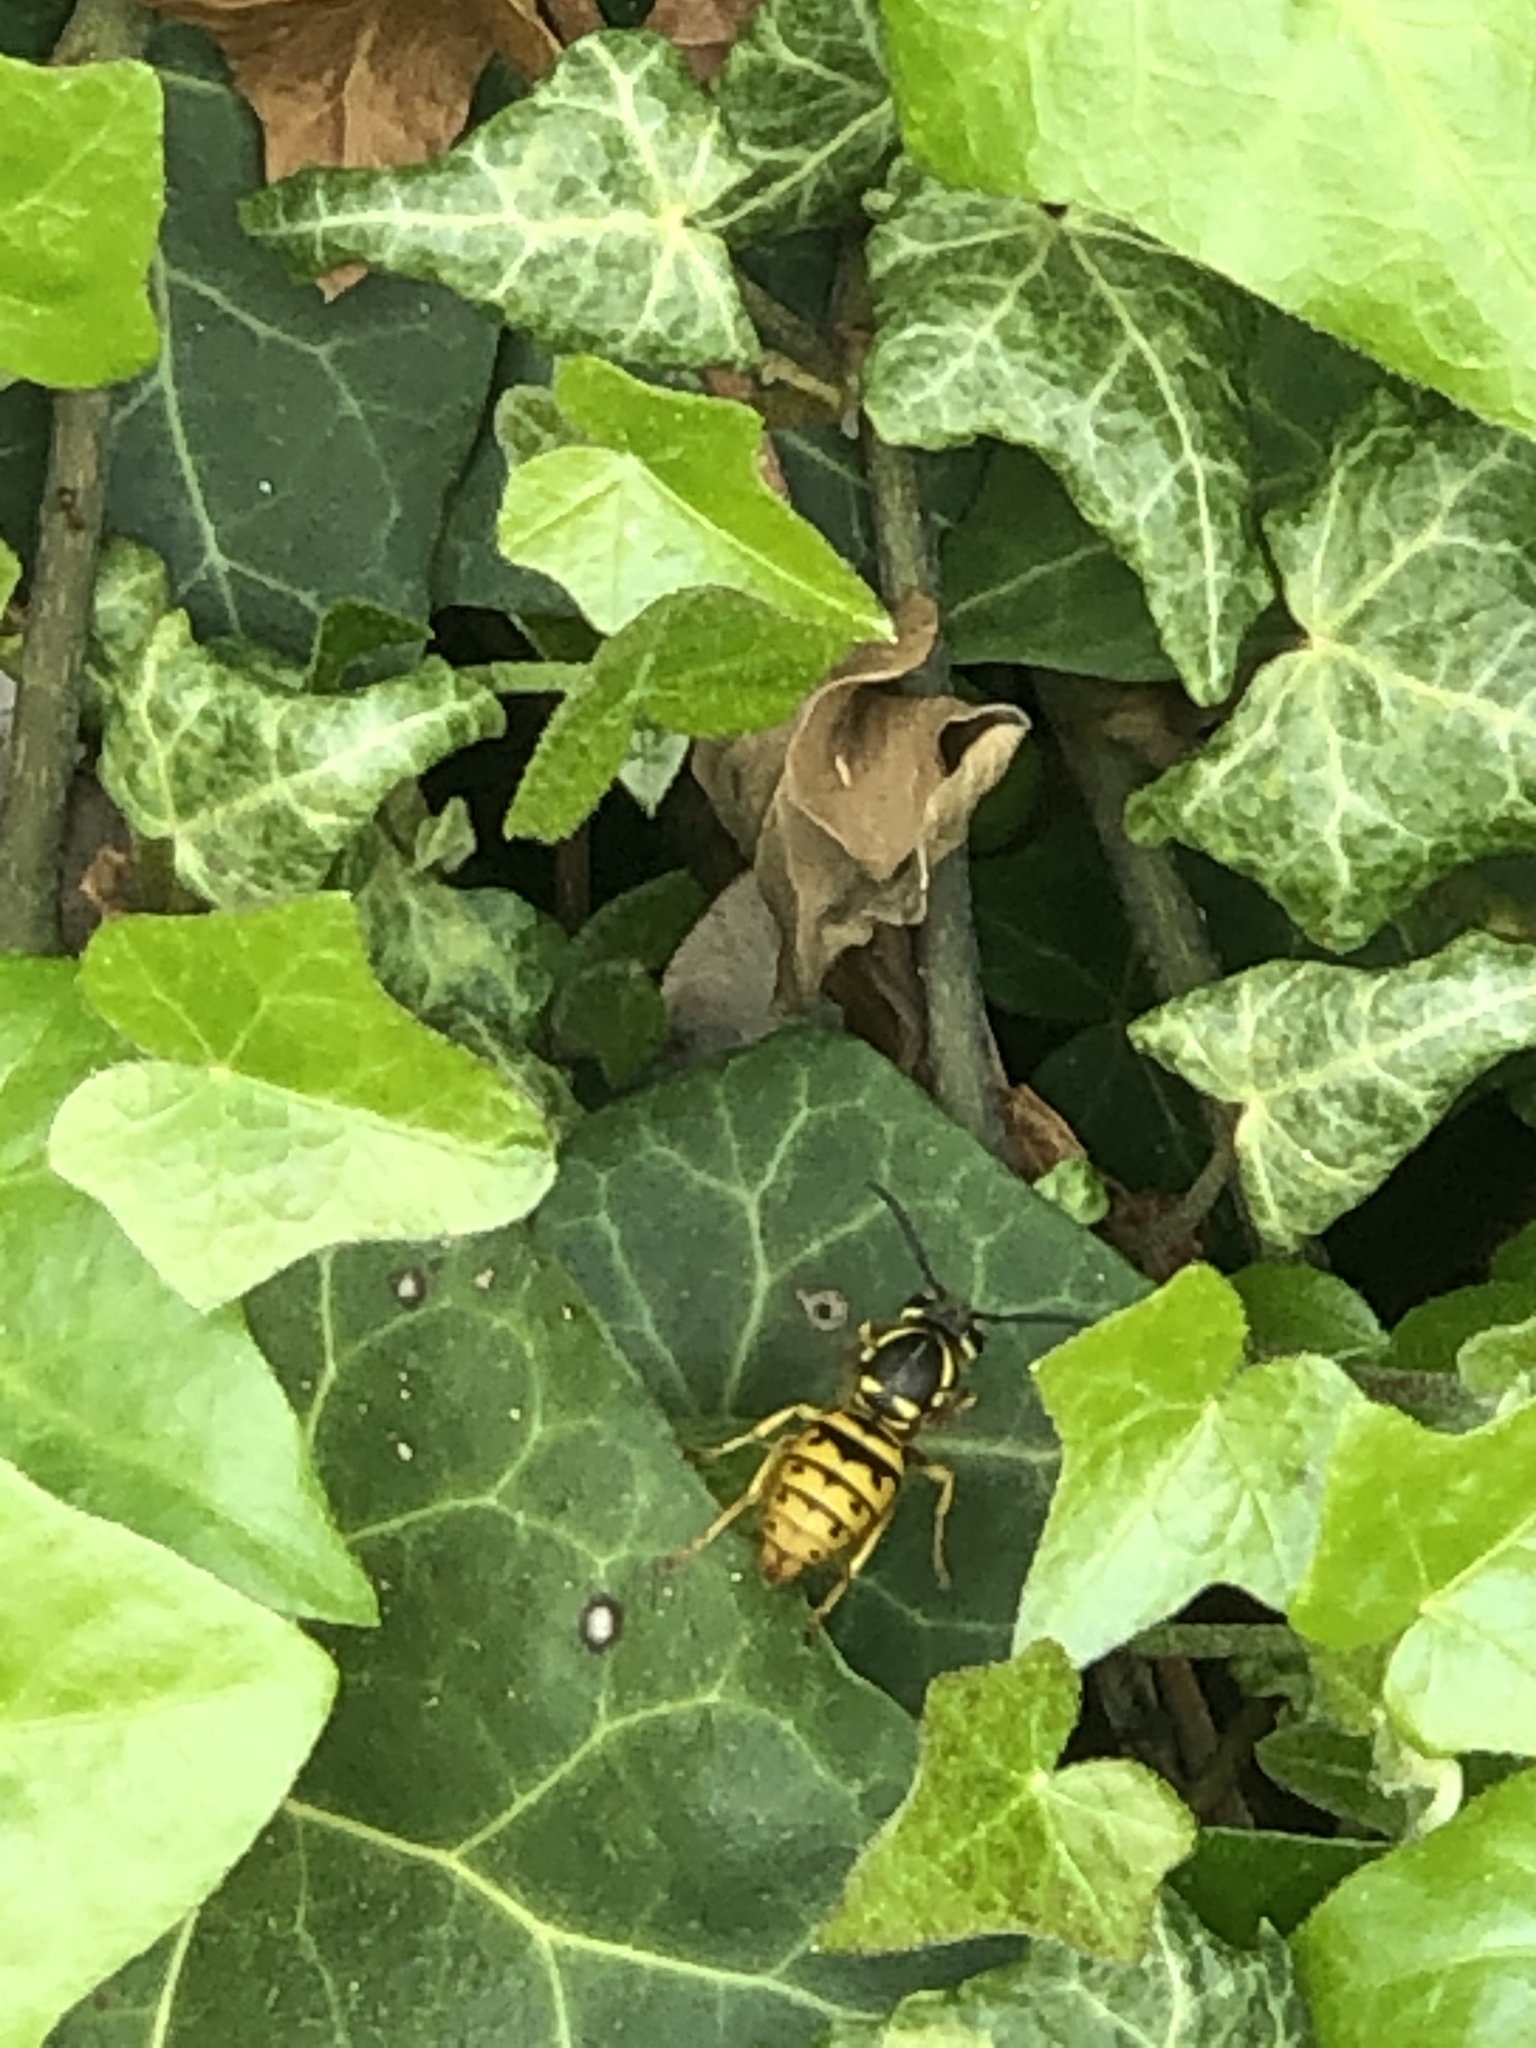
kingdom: Animalia
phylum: Arthropoda
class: Insecta
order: Hymenoptera
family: Vespidae
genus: Vespula
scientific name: Vespula maculifrons
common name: Eastern yellowjacket
